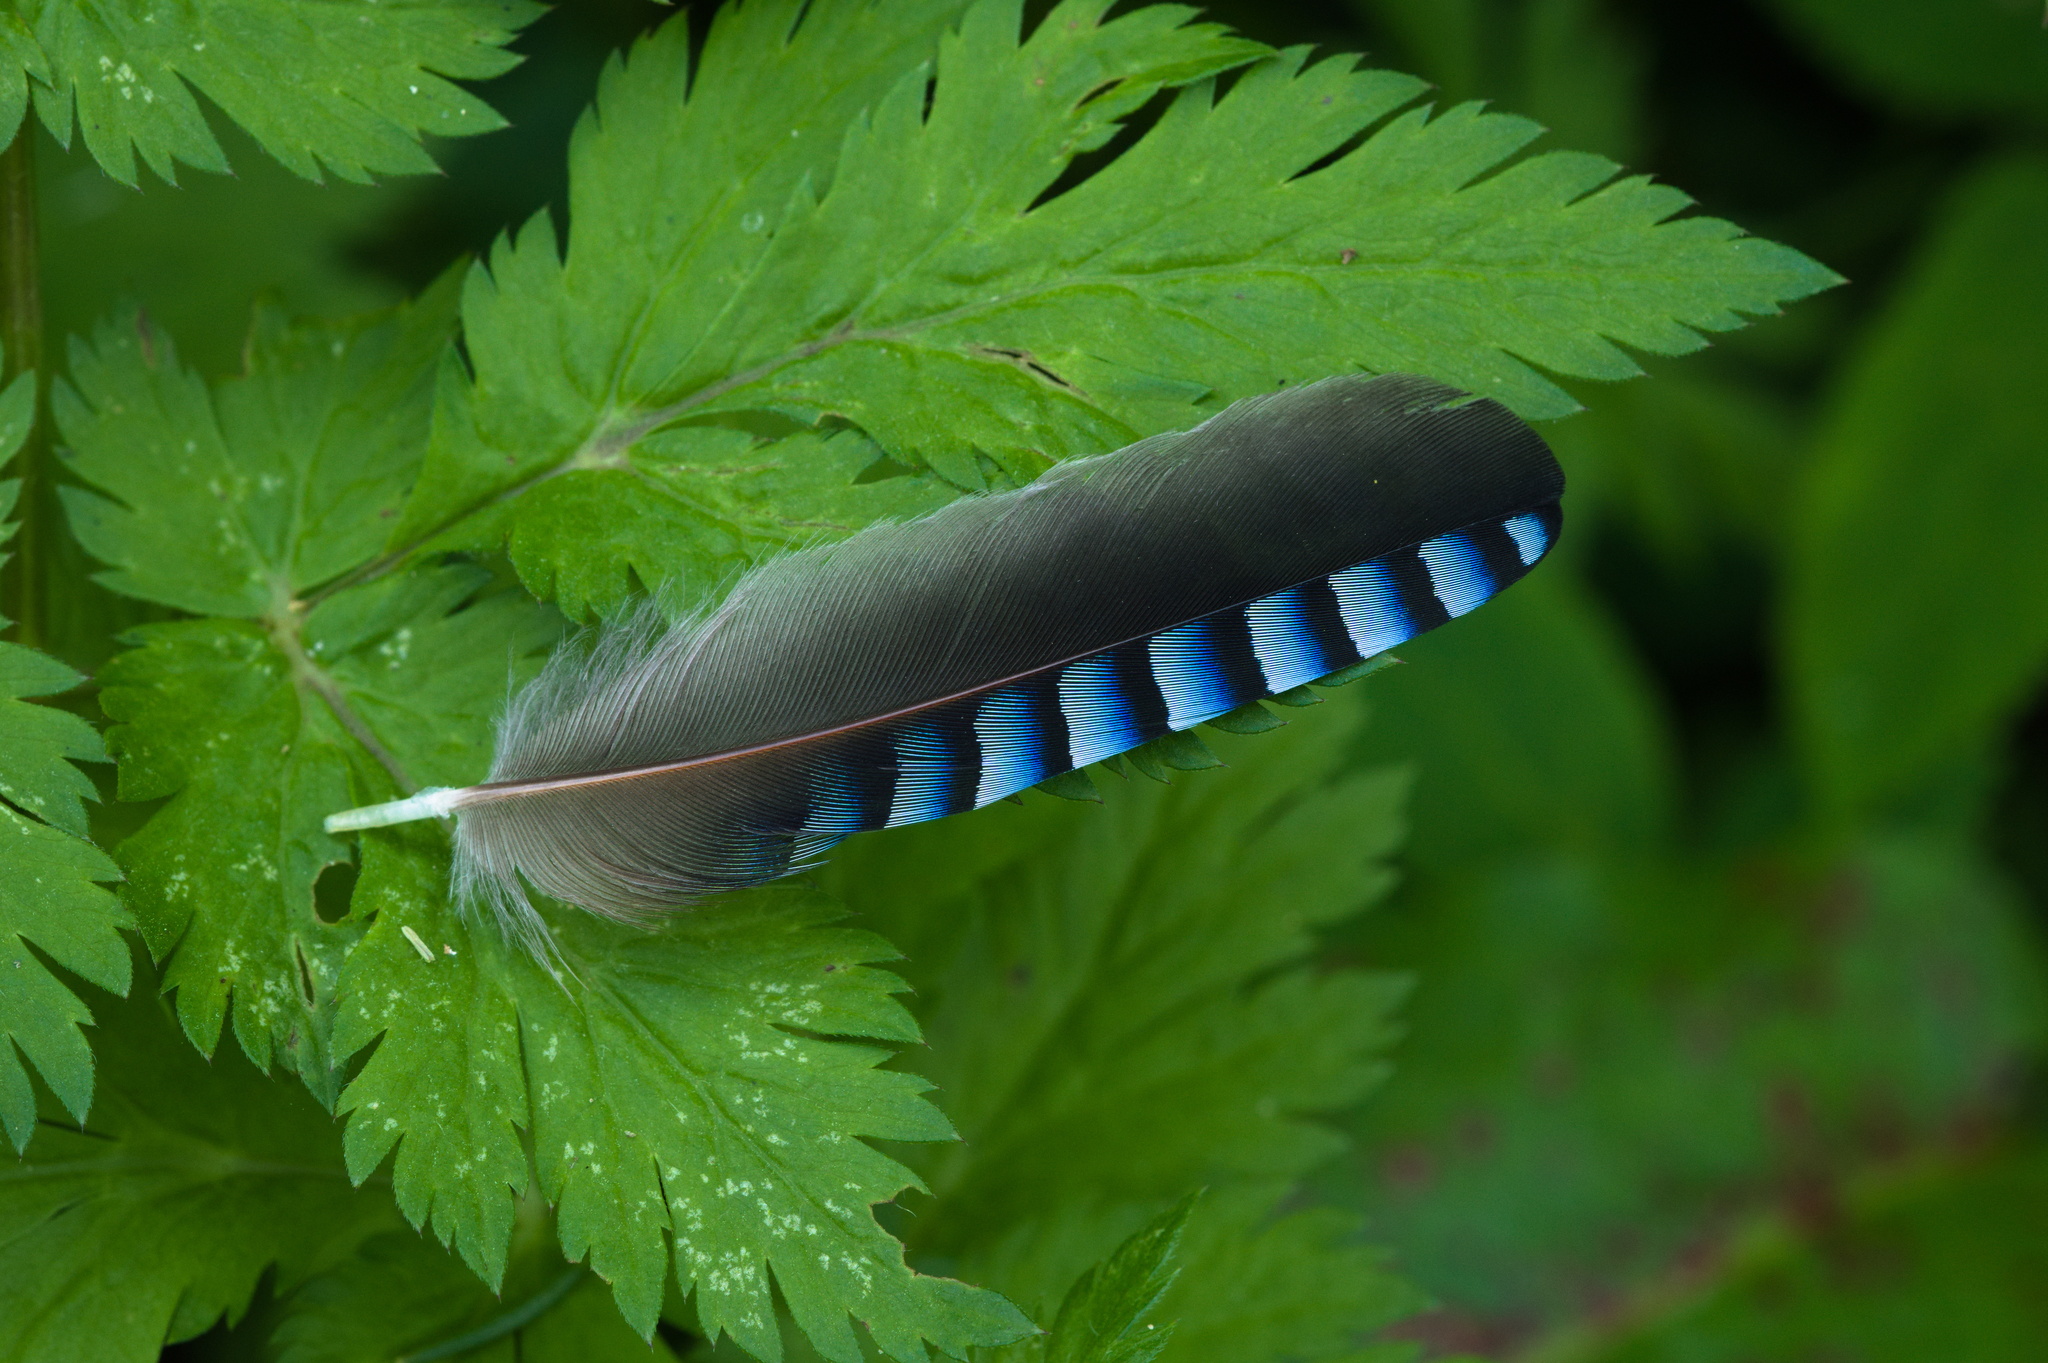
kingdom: Animalia
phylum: Chordata
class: Aves
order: Passeriformes
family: Corvidae
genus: Garrulus
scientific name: Garrulus glandarius
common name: Eurasian jay
